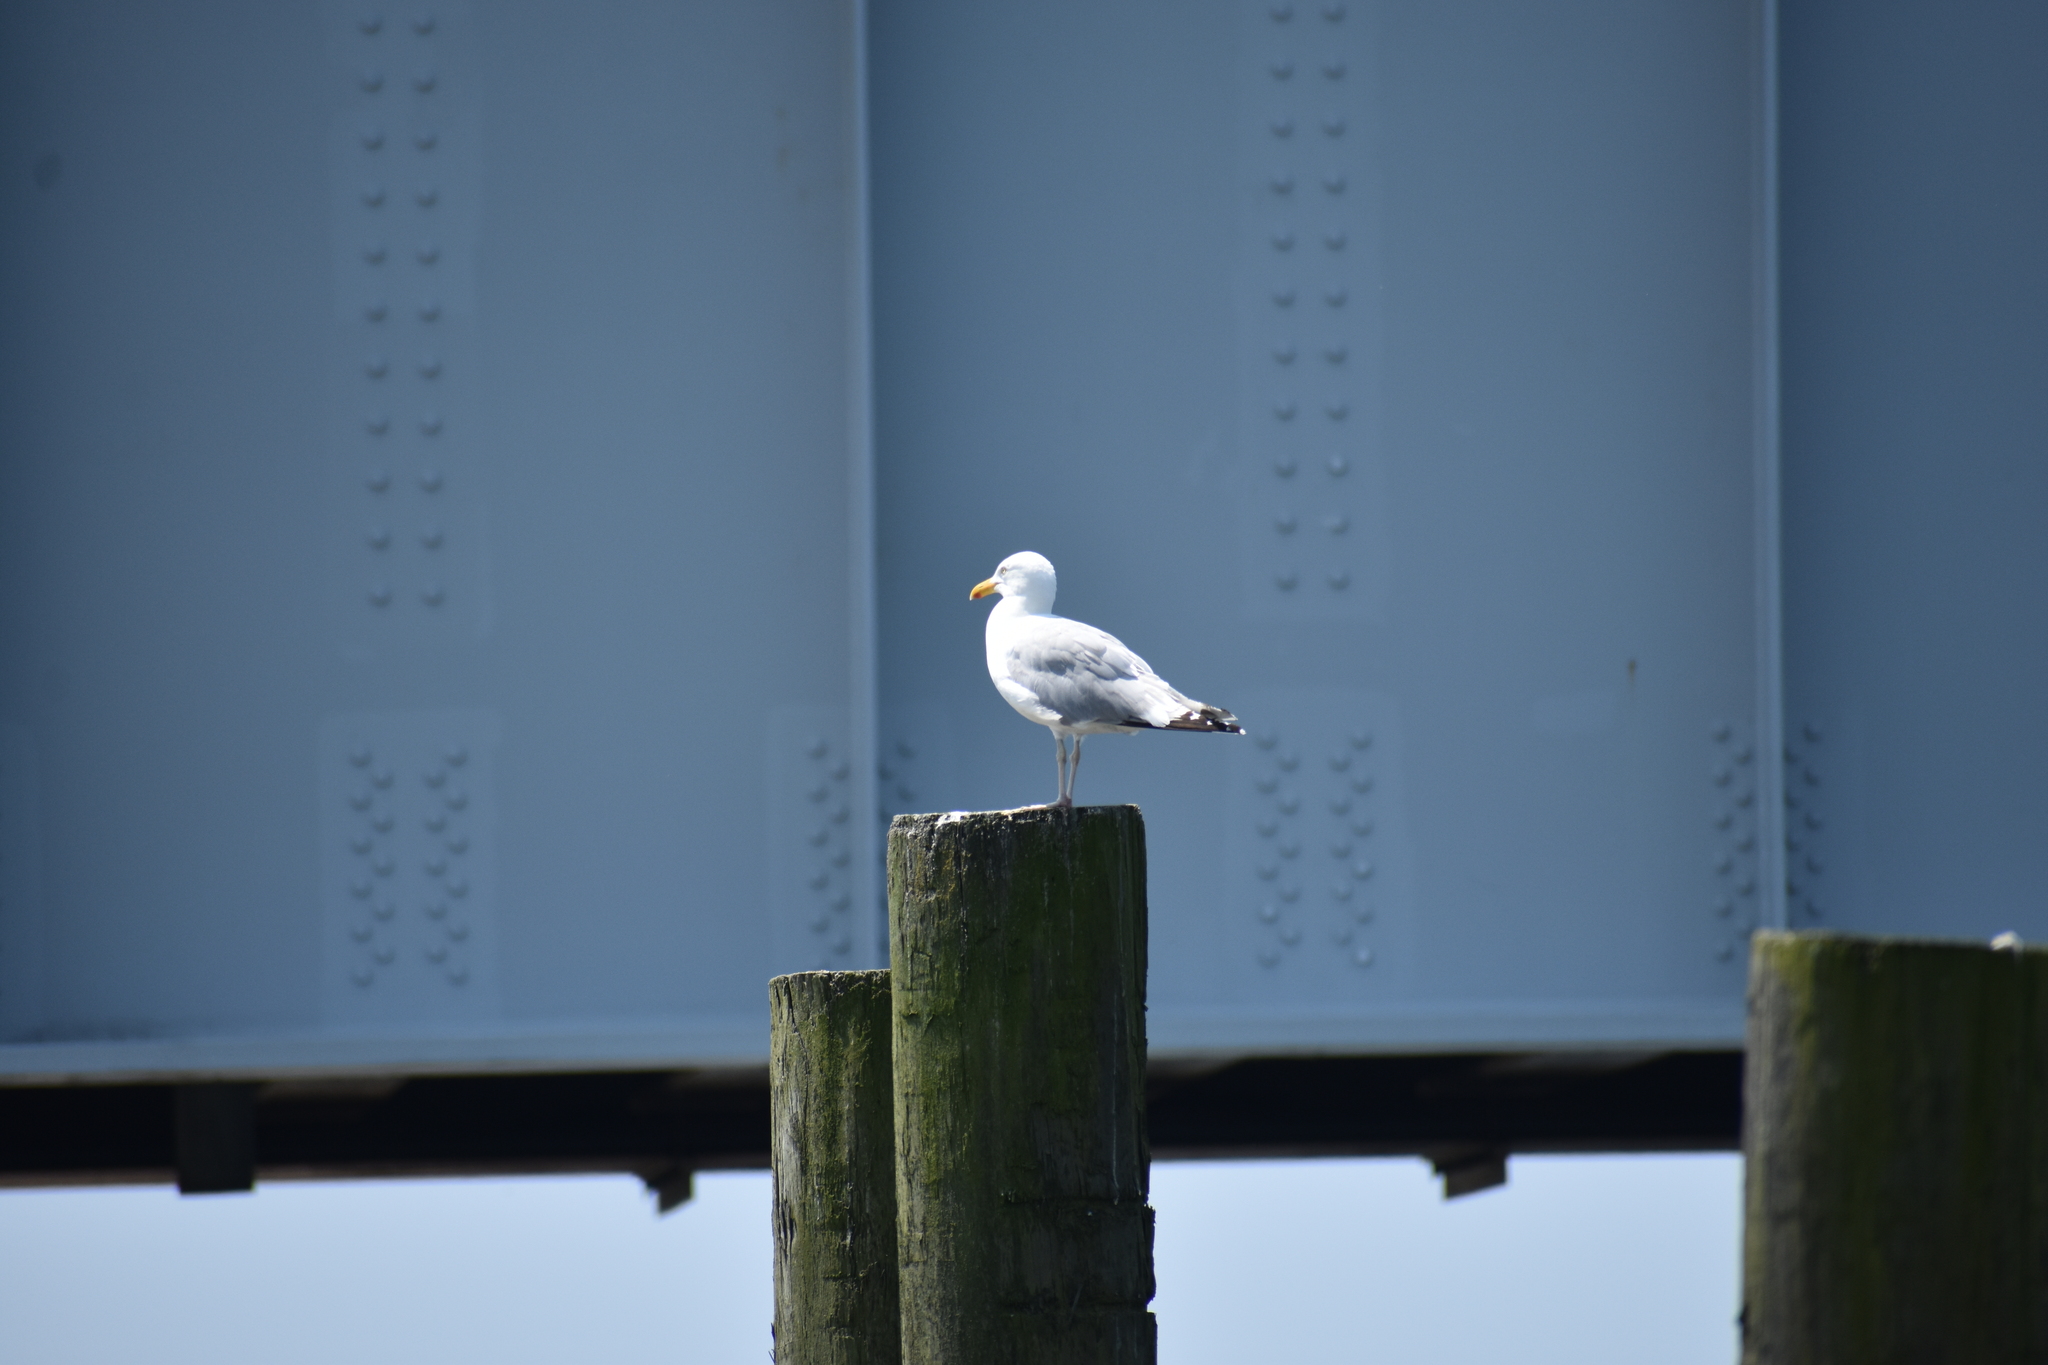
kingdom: Animalia
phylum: Chordata
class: Aves
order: Charadriiformes
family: Laridae
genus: Larus
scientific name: Larus argentatus
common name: Herring gull
